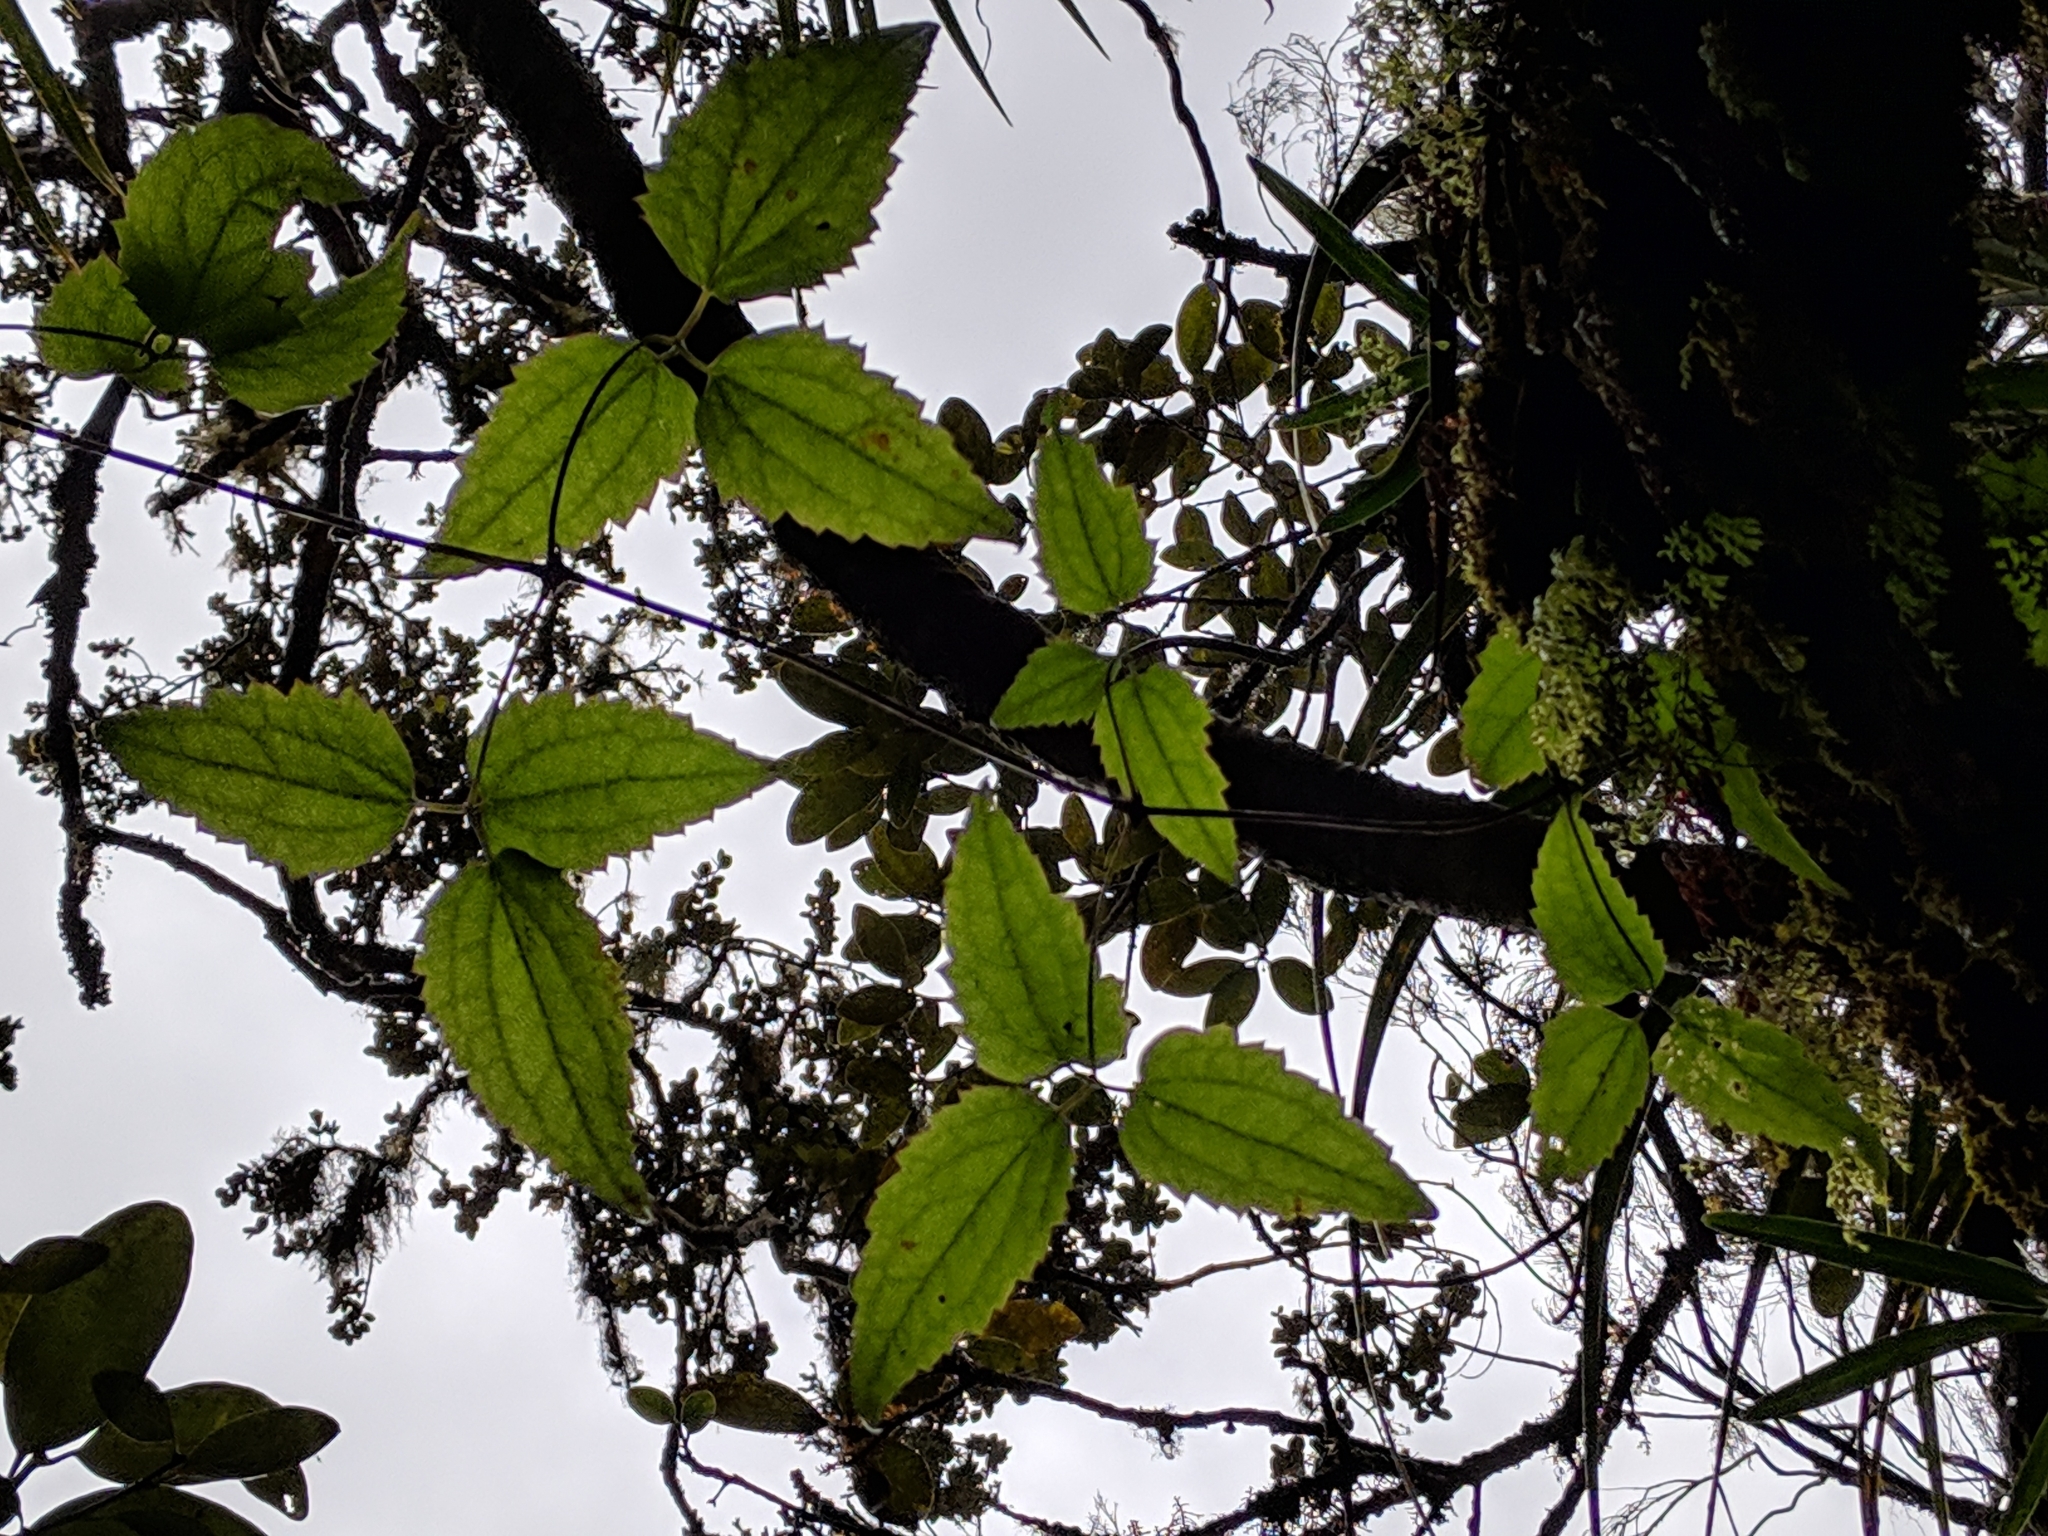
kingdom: Plantae
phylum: Tracheophyta
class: Magnoliopsida
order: Ranunculales
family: Ranunculaceae
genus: Clematis
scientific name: Clematis mauritiana
